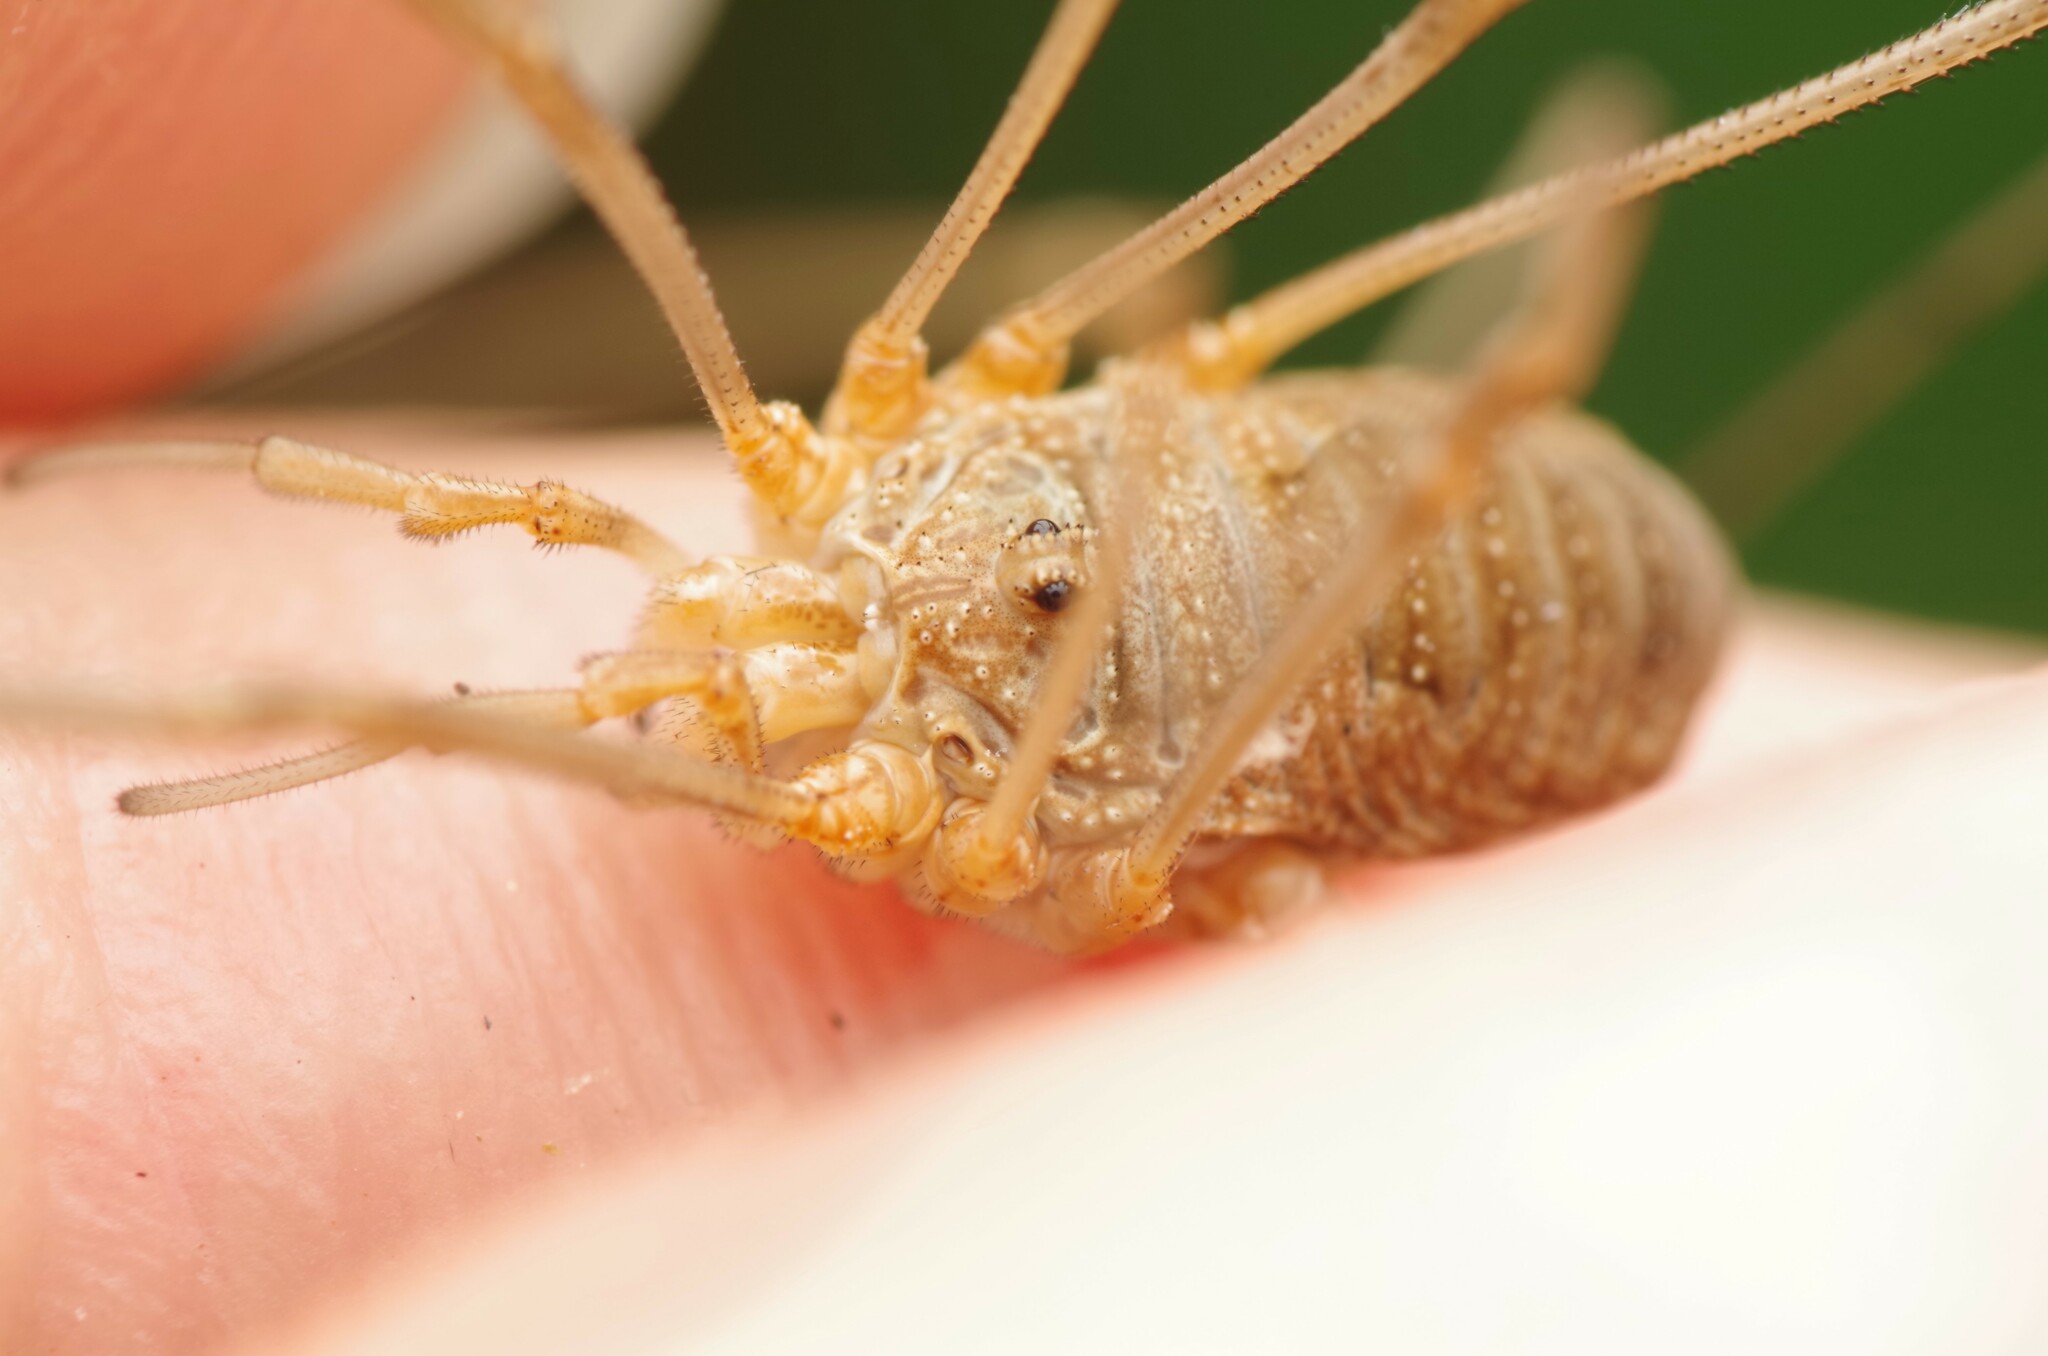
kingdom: Animalia
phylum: Arthropoda
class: Arachnida
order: Opiliones
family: Phalangiidae
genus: Phalangium
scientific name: Phalangium opilio
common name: Daddy longleg
